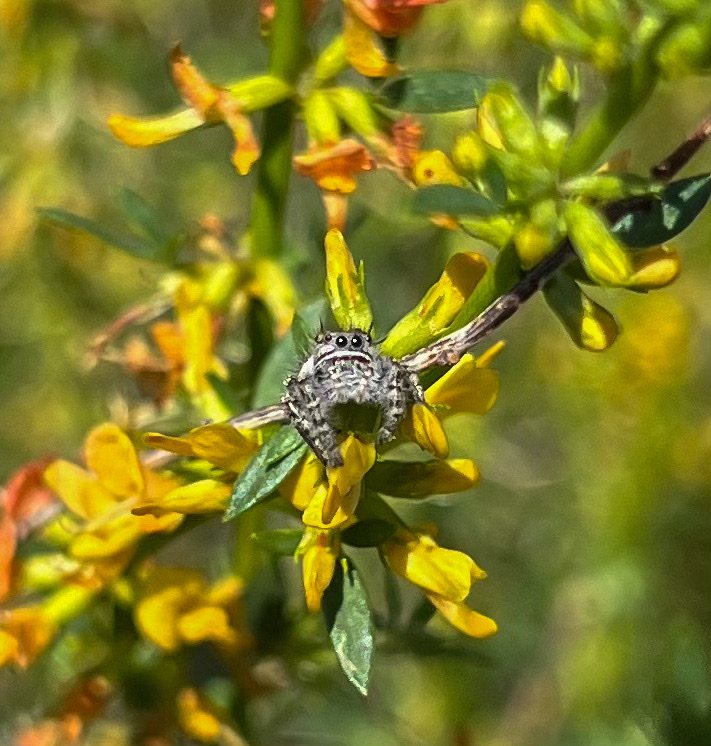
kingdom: Animalia
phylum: Arthropoda
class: Arachnida
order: Araneae
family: Salticidae
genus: Phidippus
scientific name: Phidippus comatus
